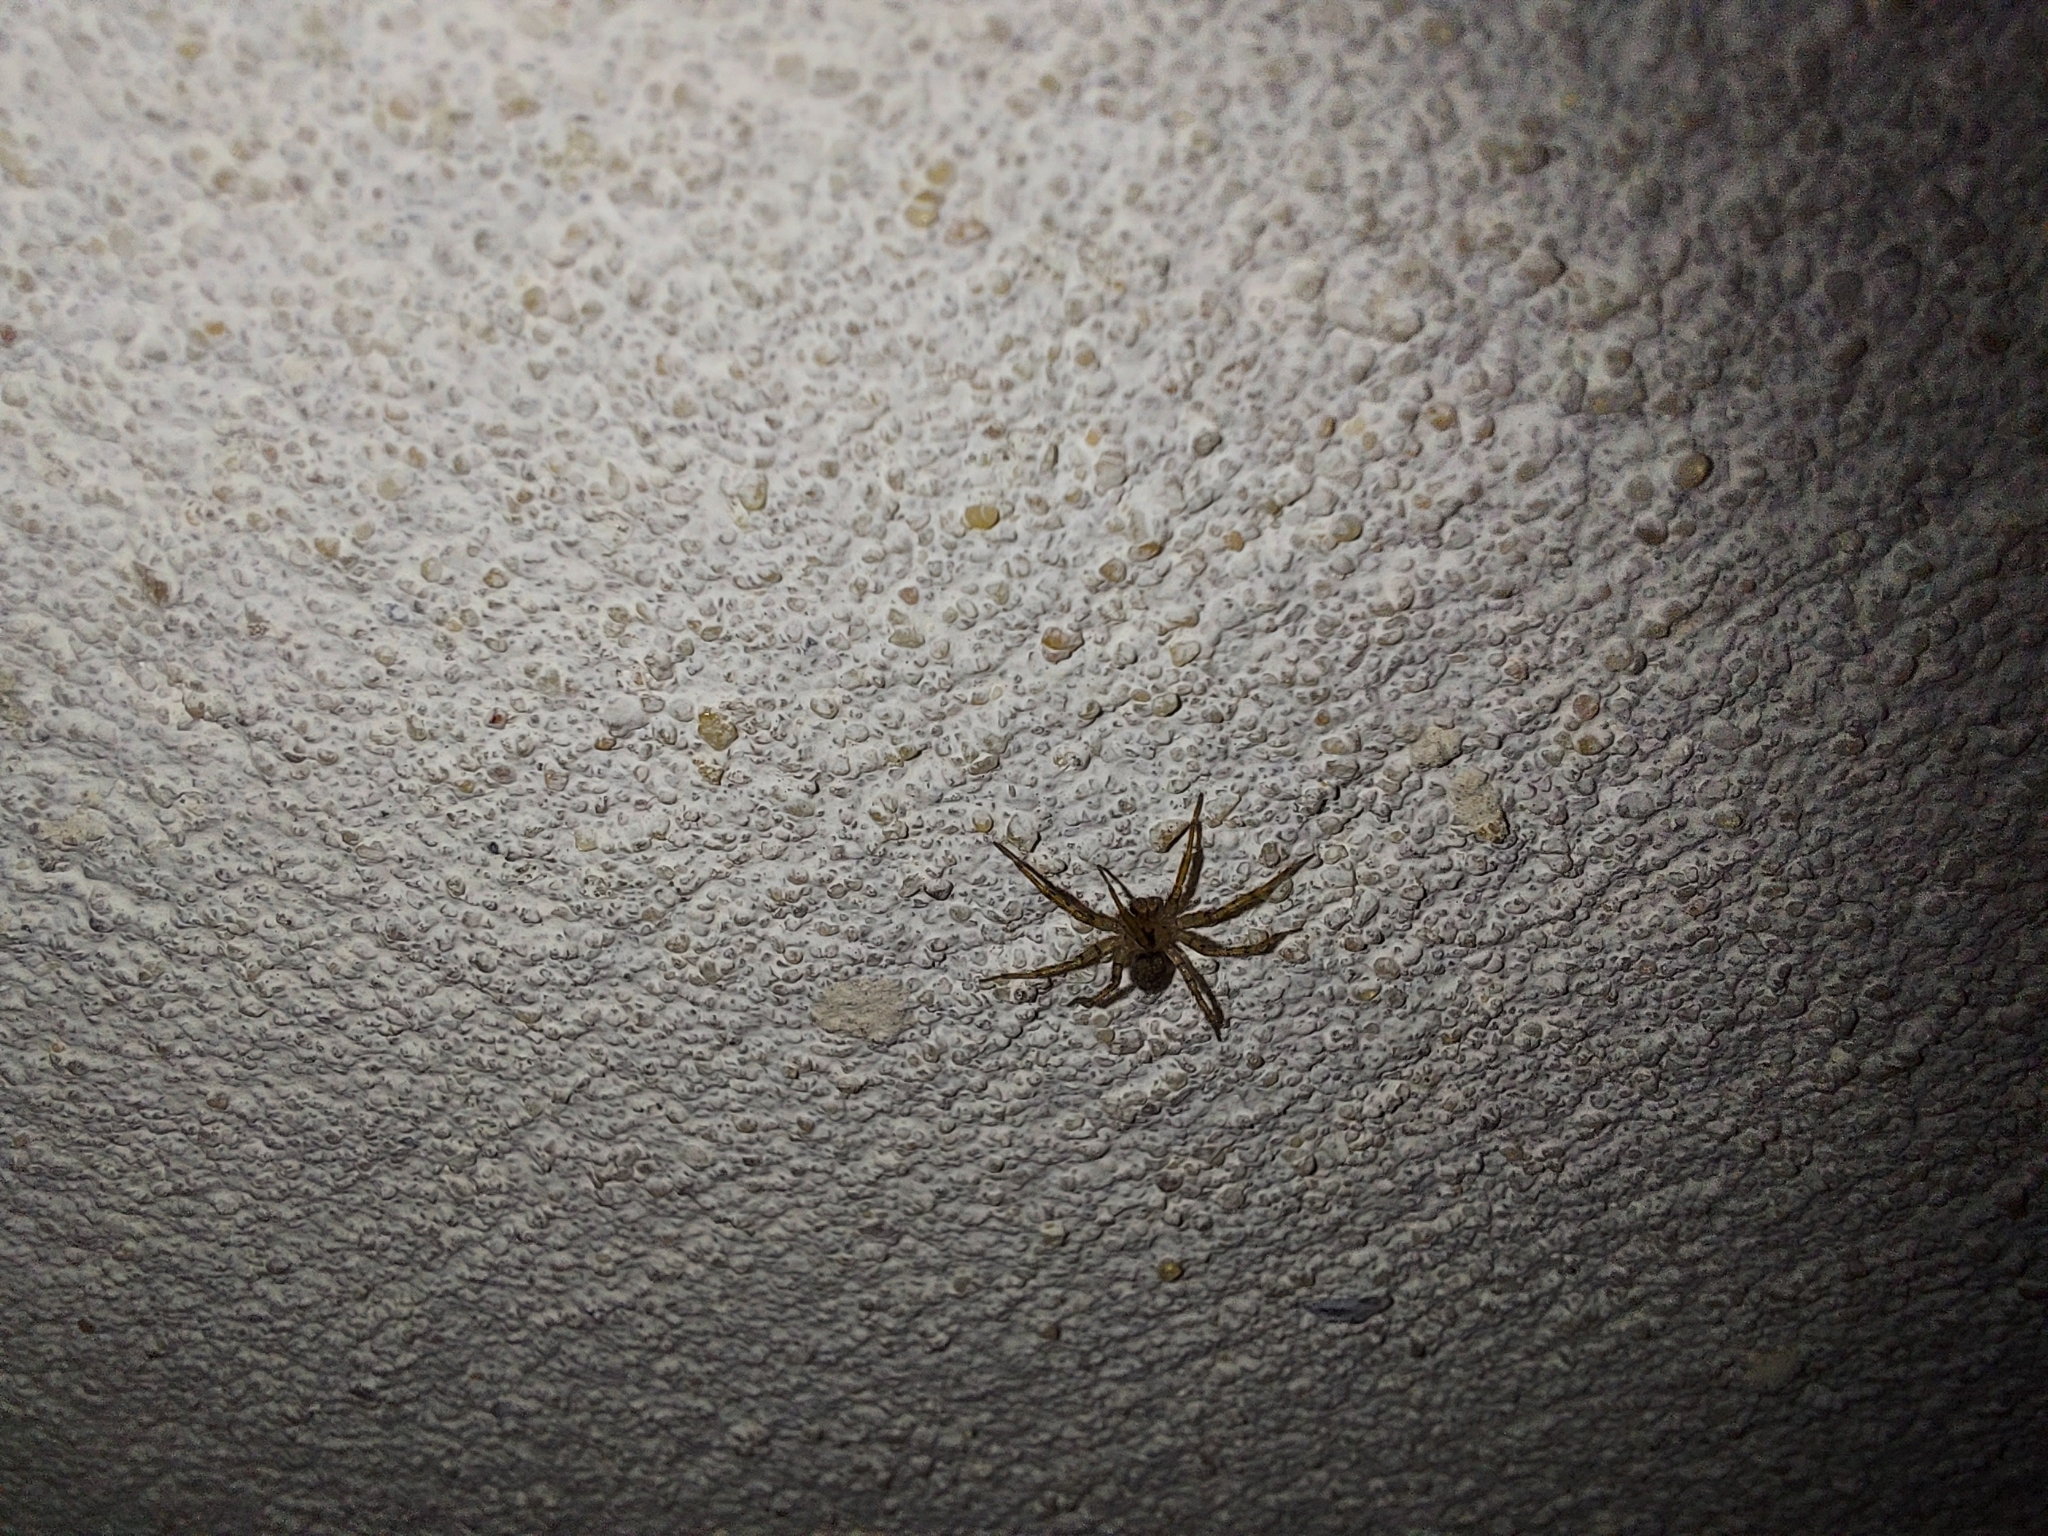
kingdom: Animalia
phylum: Arthropoda
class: Arachnida
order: Araneae
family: Oecobiidae
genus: Oecobius
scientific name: Oecobius navus
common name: Flatmesh weaver
